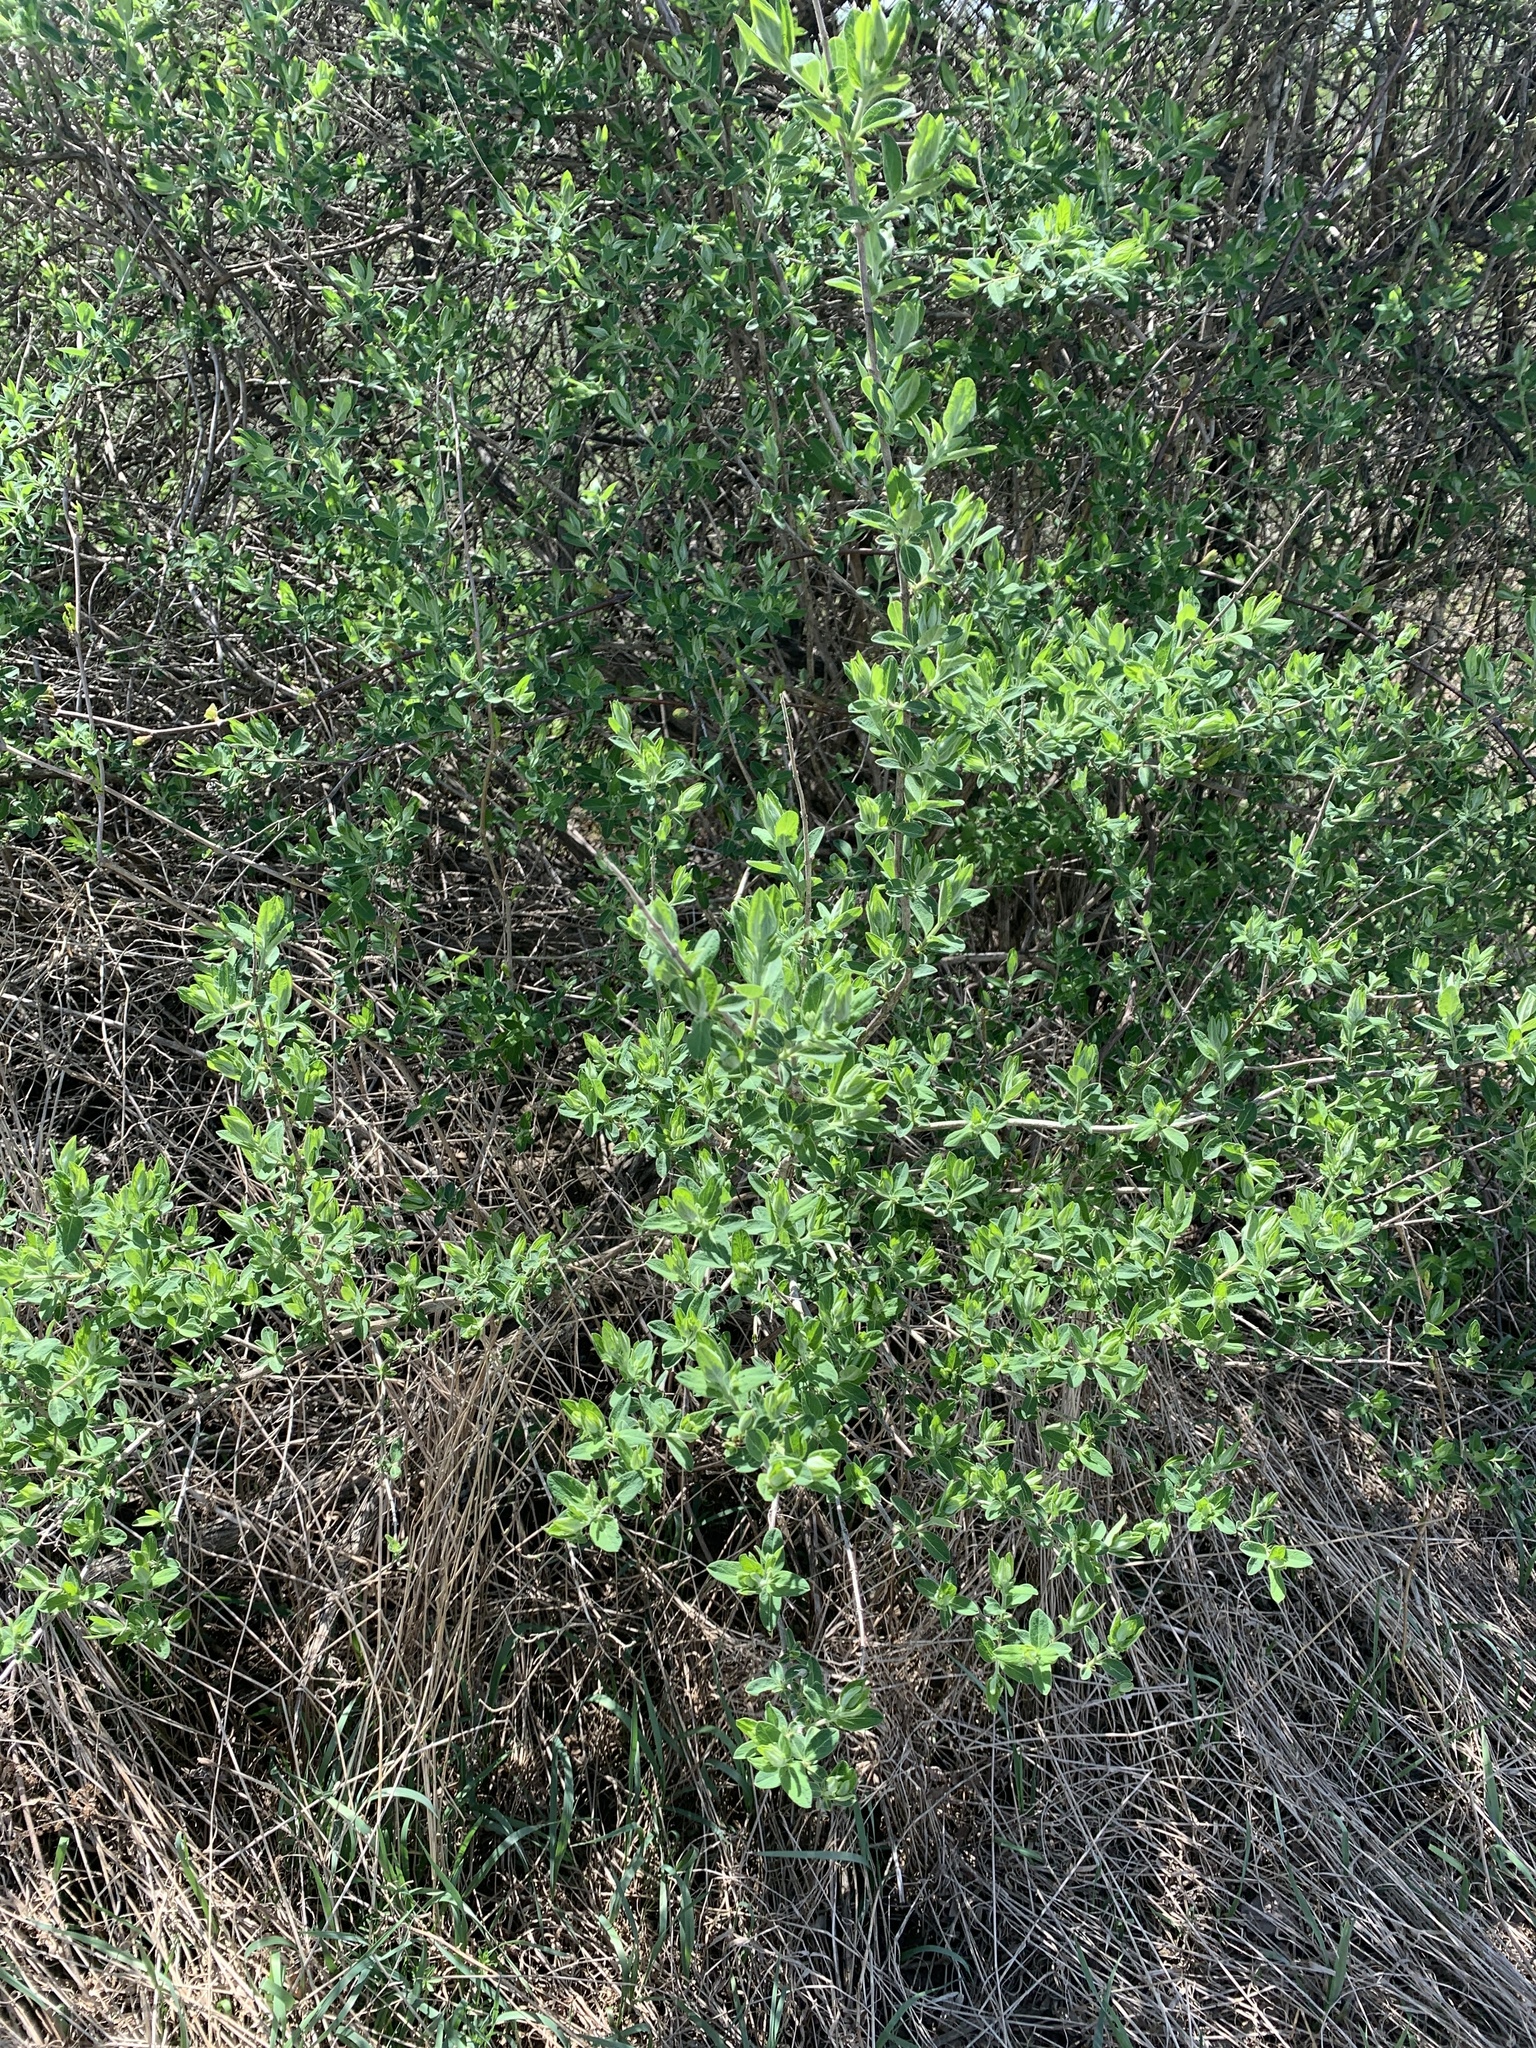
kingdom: Plantae
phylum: Tracheophyta
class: Magnoliopsida
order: Dipsacales
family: Caprifoliaceae
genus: Lonicera
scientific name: Lonicera
